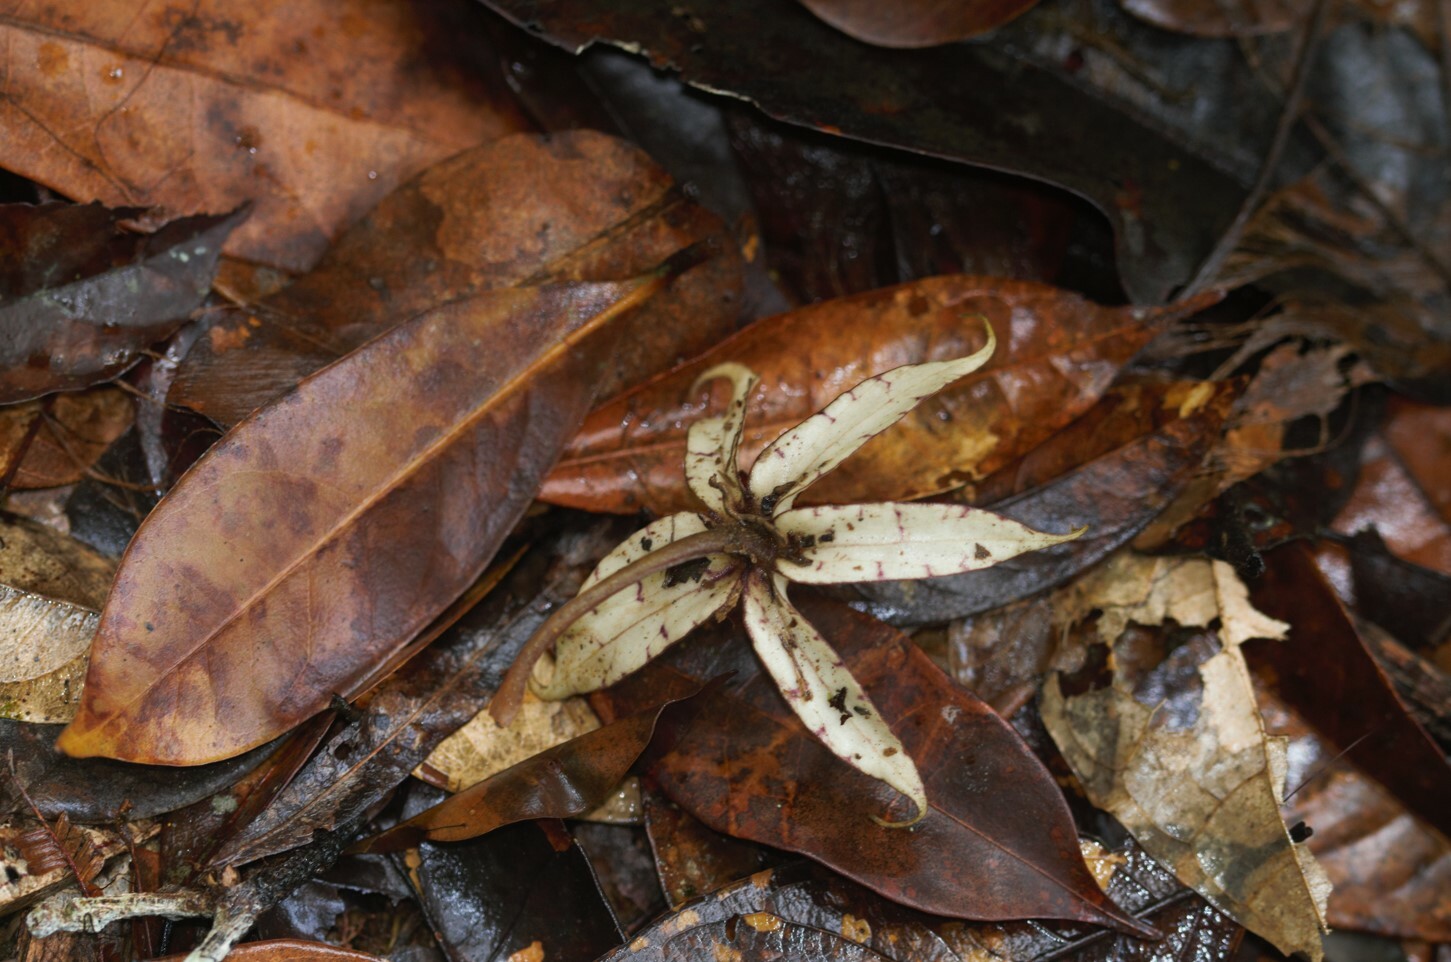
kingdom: Plantae
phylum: Tracheophyta
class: Magnoliopsida
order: Solanales
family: Solanaceae
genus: Markea
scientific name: Markea longiflora
